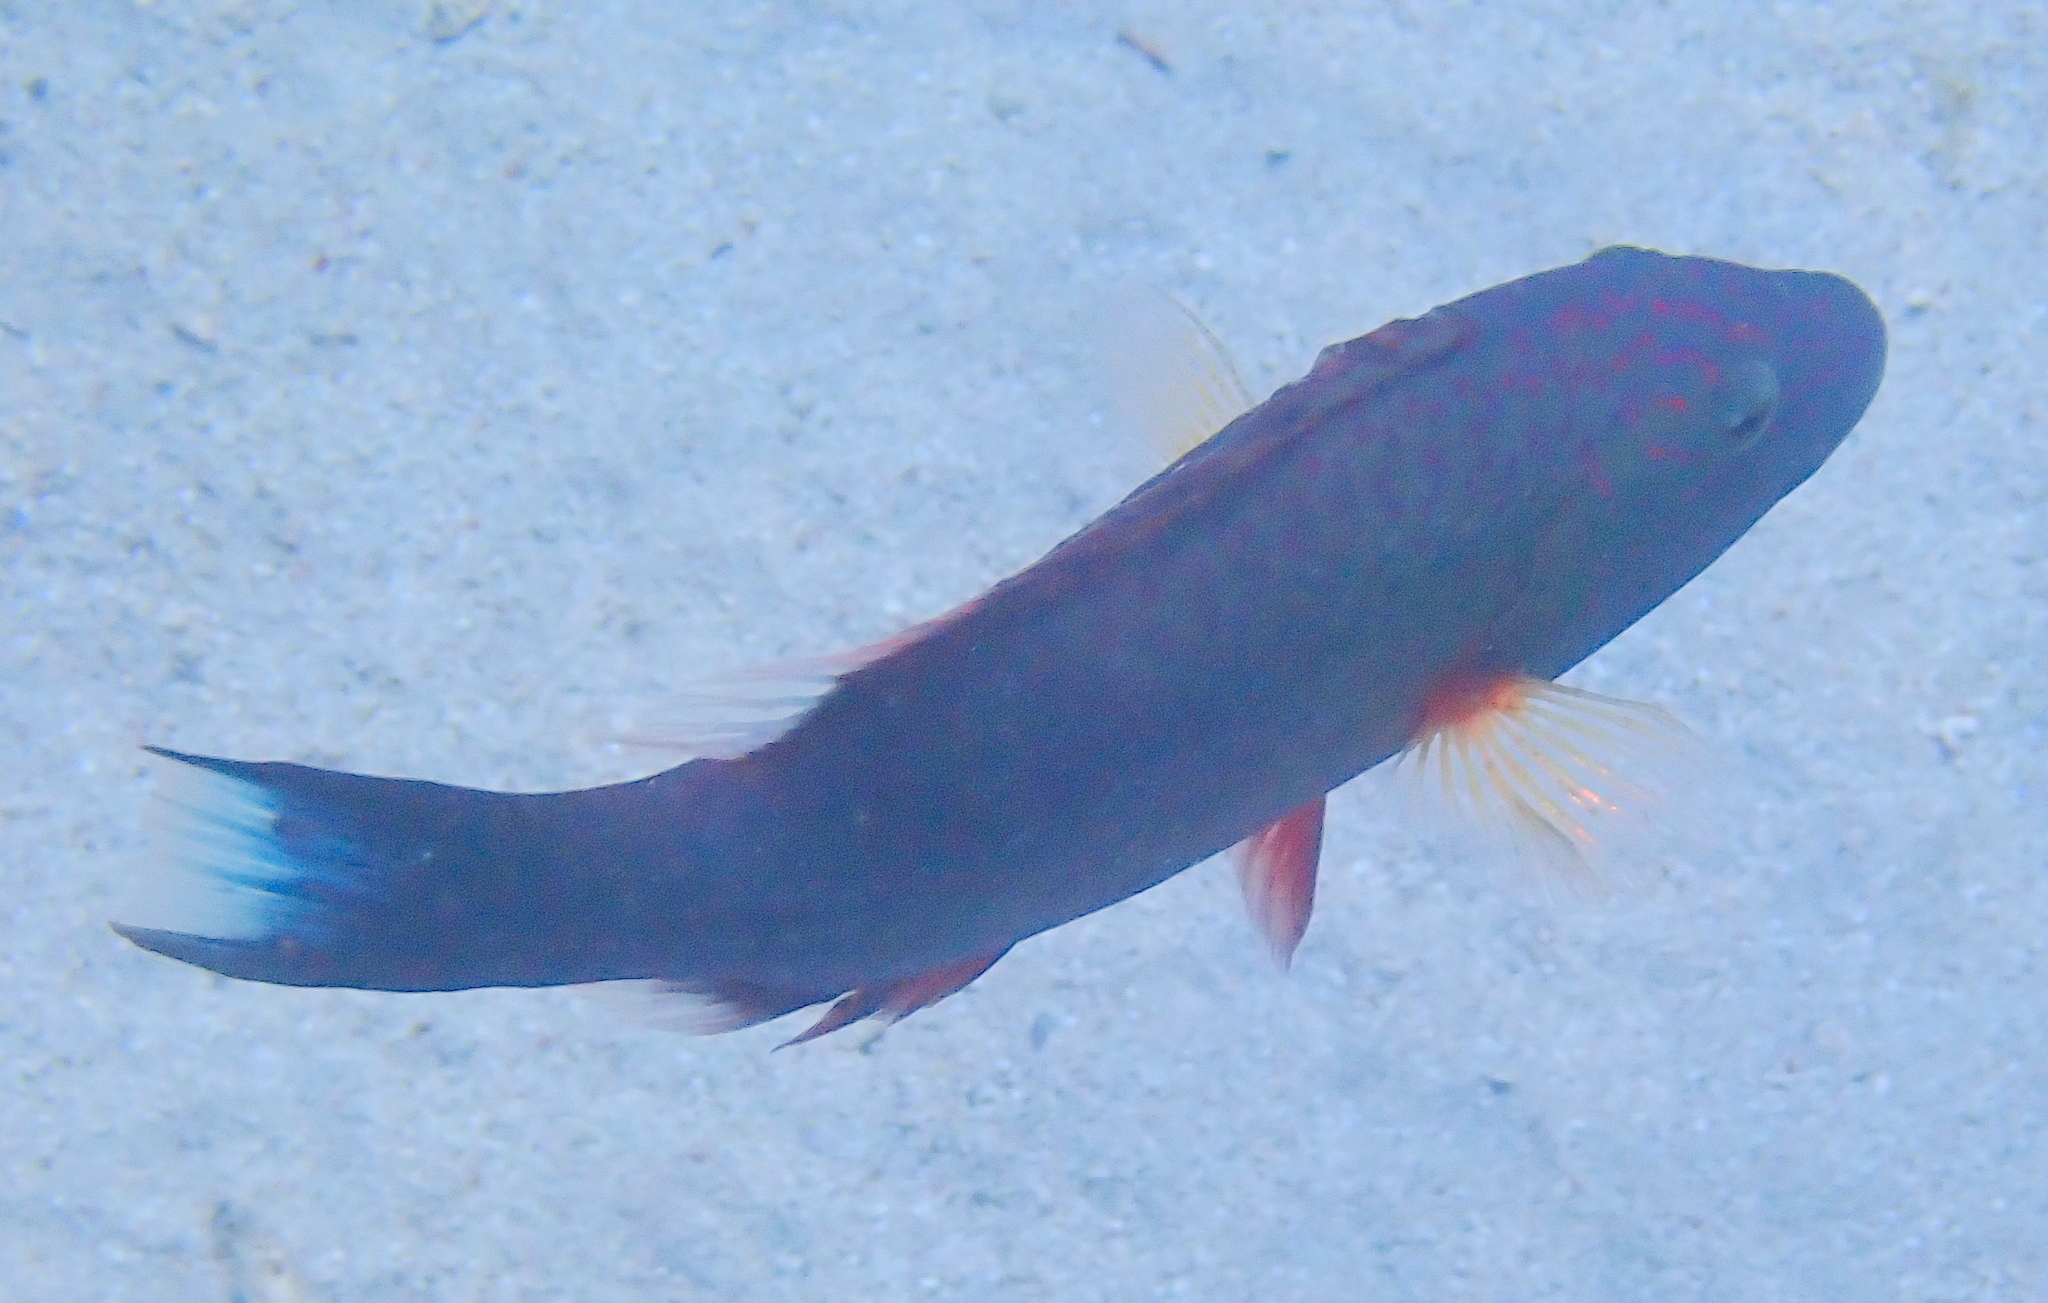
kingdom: Animalia
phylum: Chordata
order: Perciformes
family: Labridae
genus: Oxycheilinus
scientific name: Oxycheilinus digramma
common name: Bandcheek wrasse
